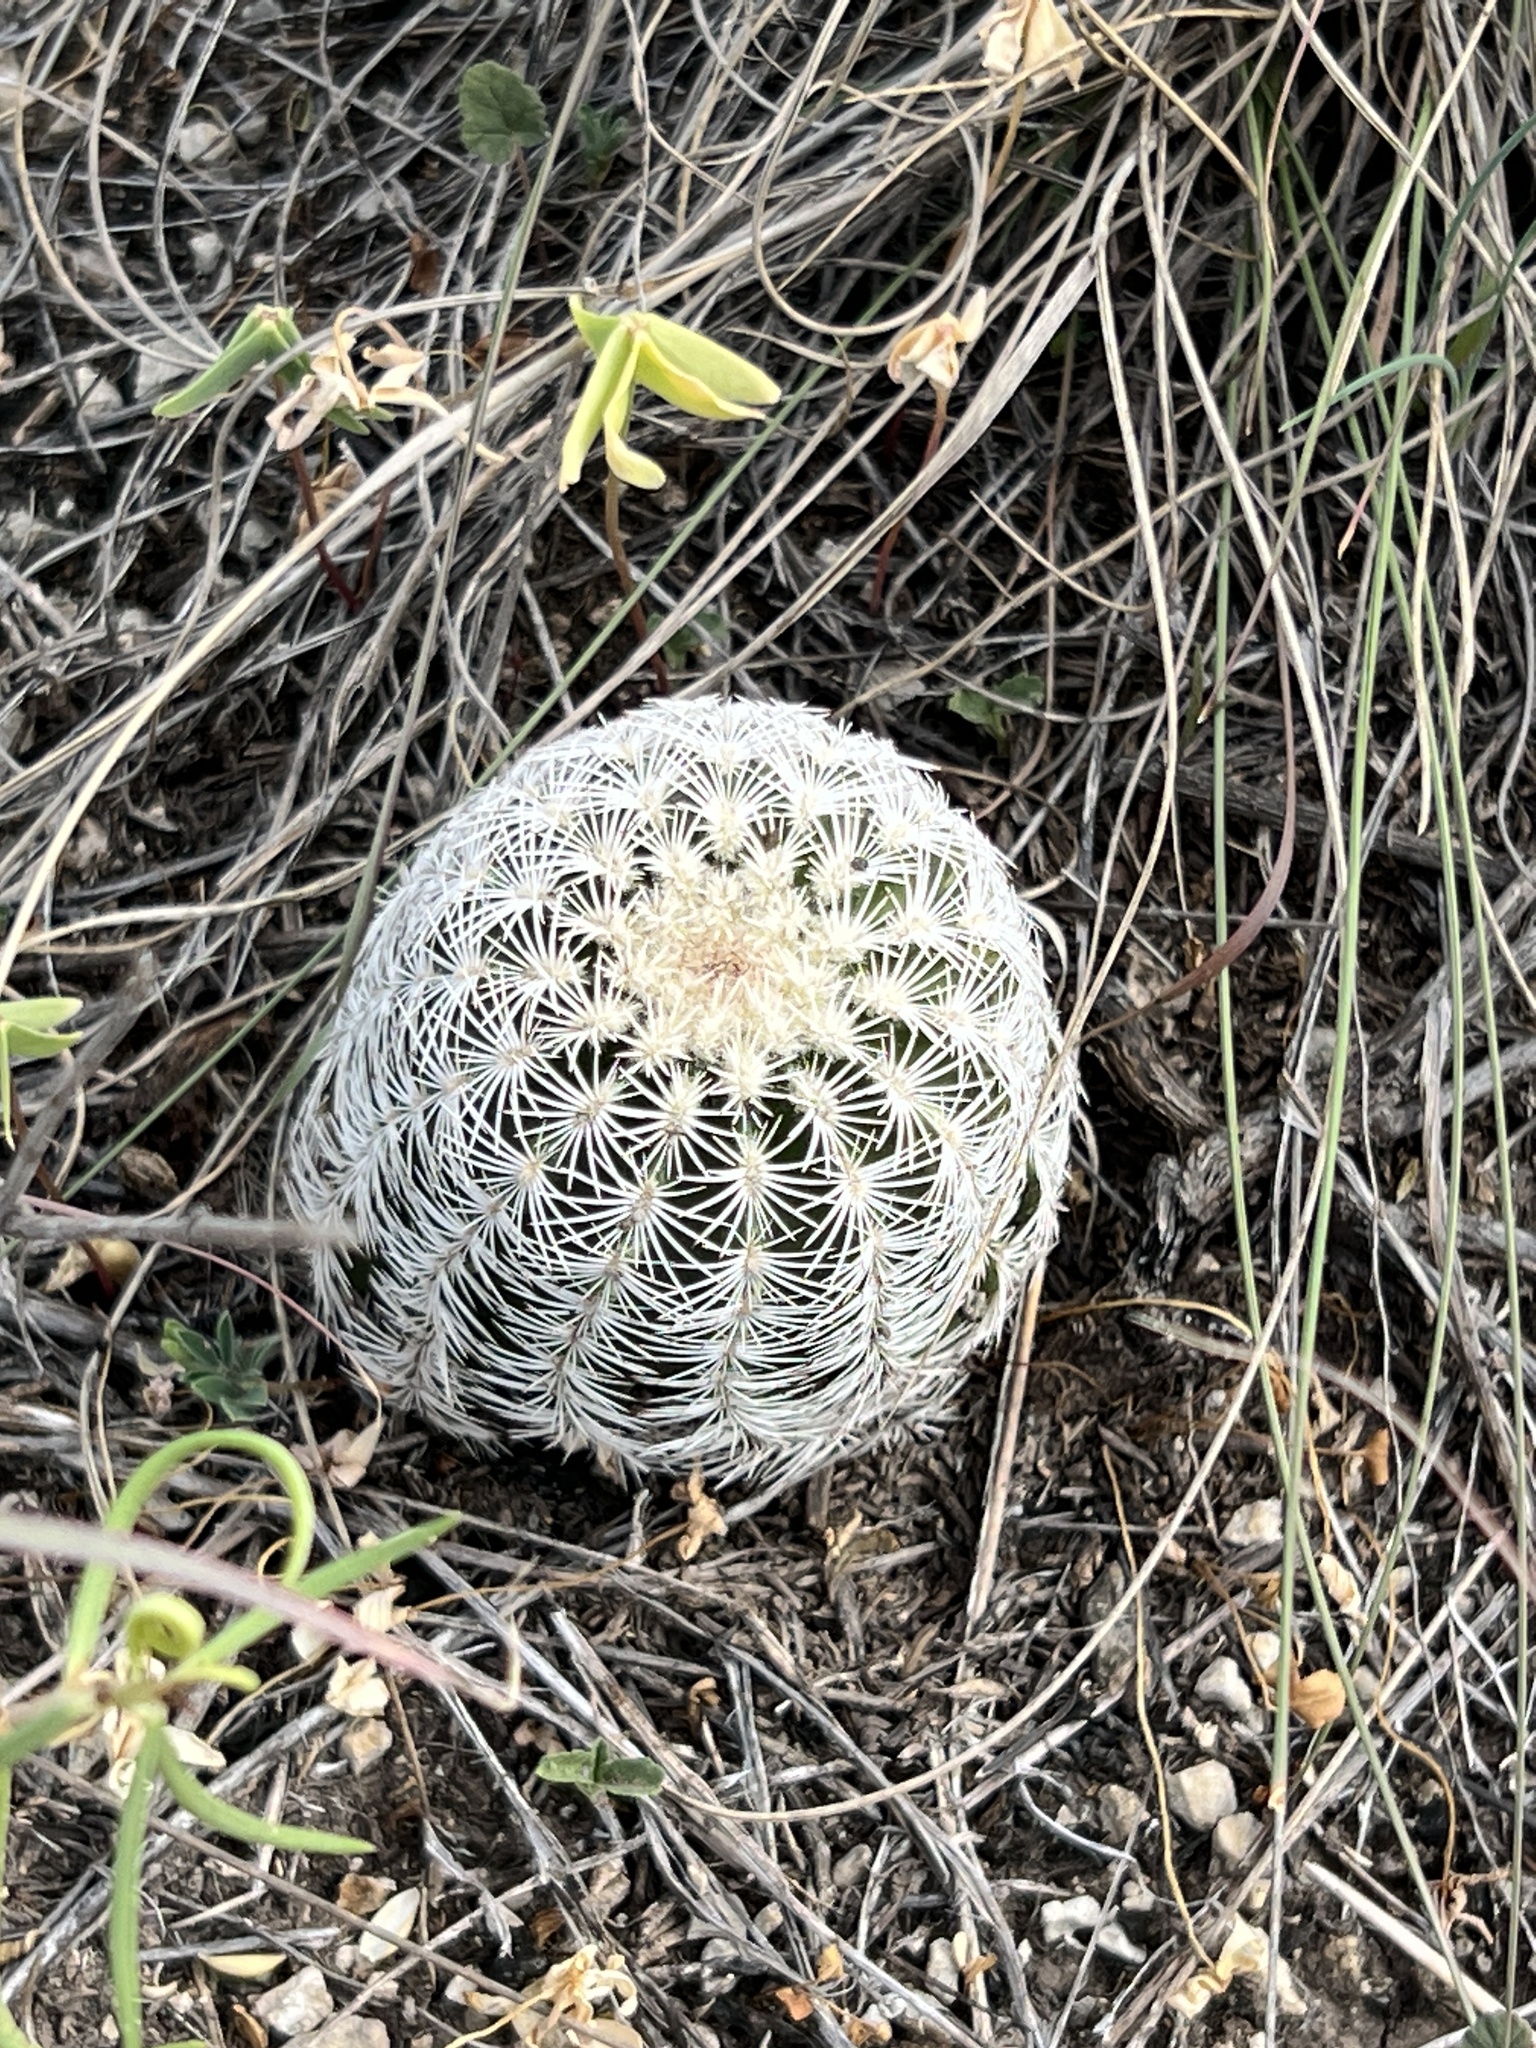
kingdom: Plantae
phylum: Tracheophyta
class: Magnoliopsida
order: Caryophyllales
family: Cactaceae
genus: Echinocereus
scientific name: Echinocereus reichenbachii
